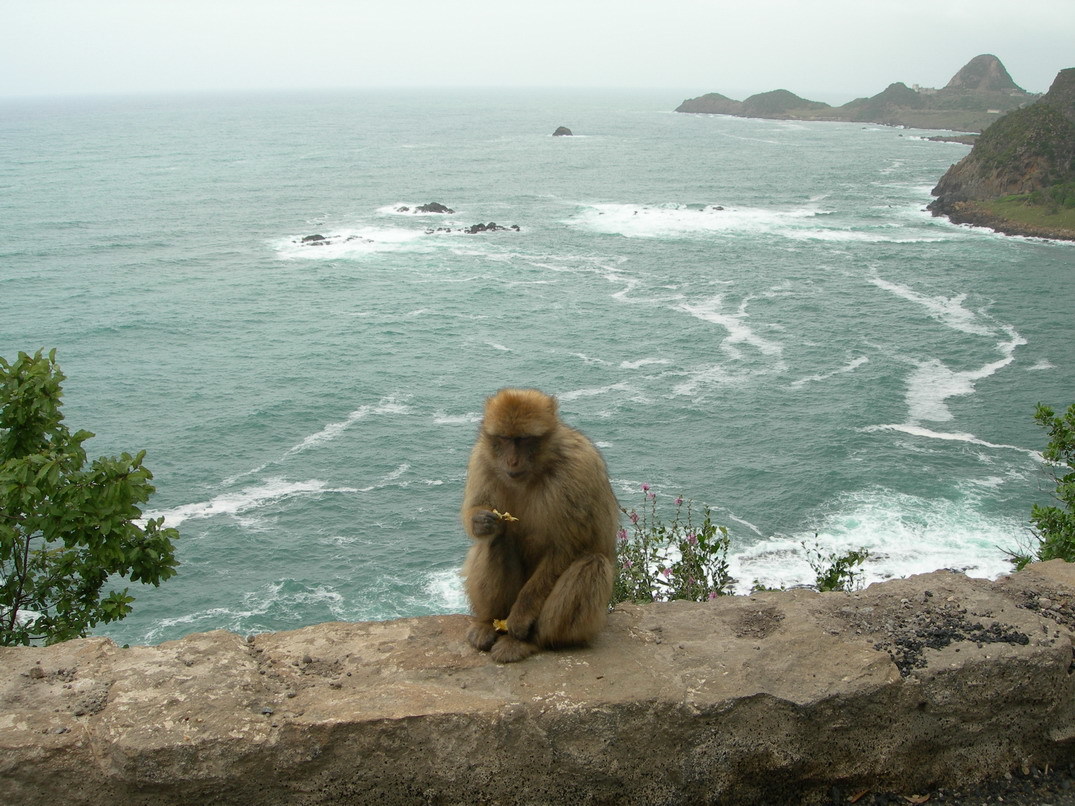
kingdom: Animalia
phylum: Chordata
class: Mammalia
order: Primates
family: Cercopithecidae
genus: Macaca
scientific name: Macaca sylvanus
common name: Barbary macaque
